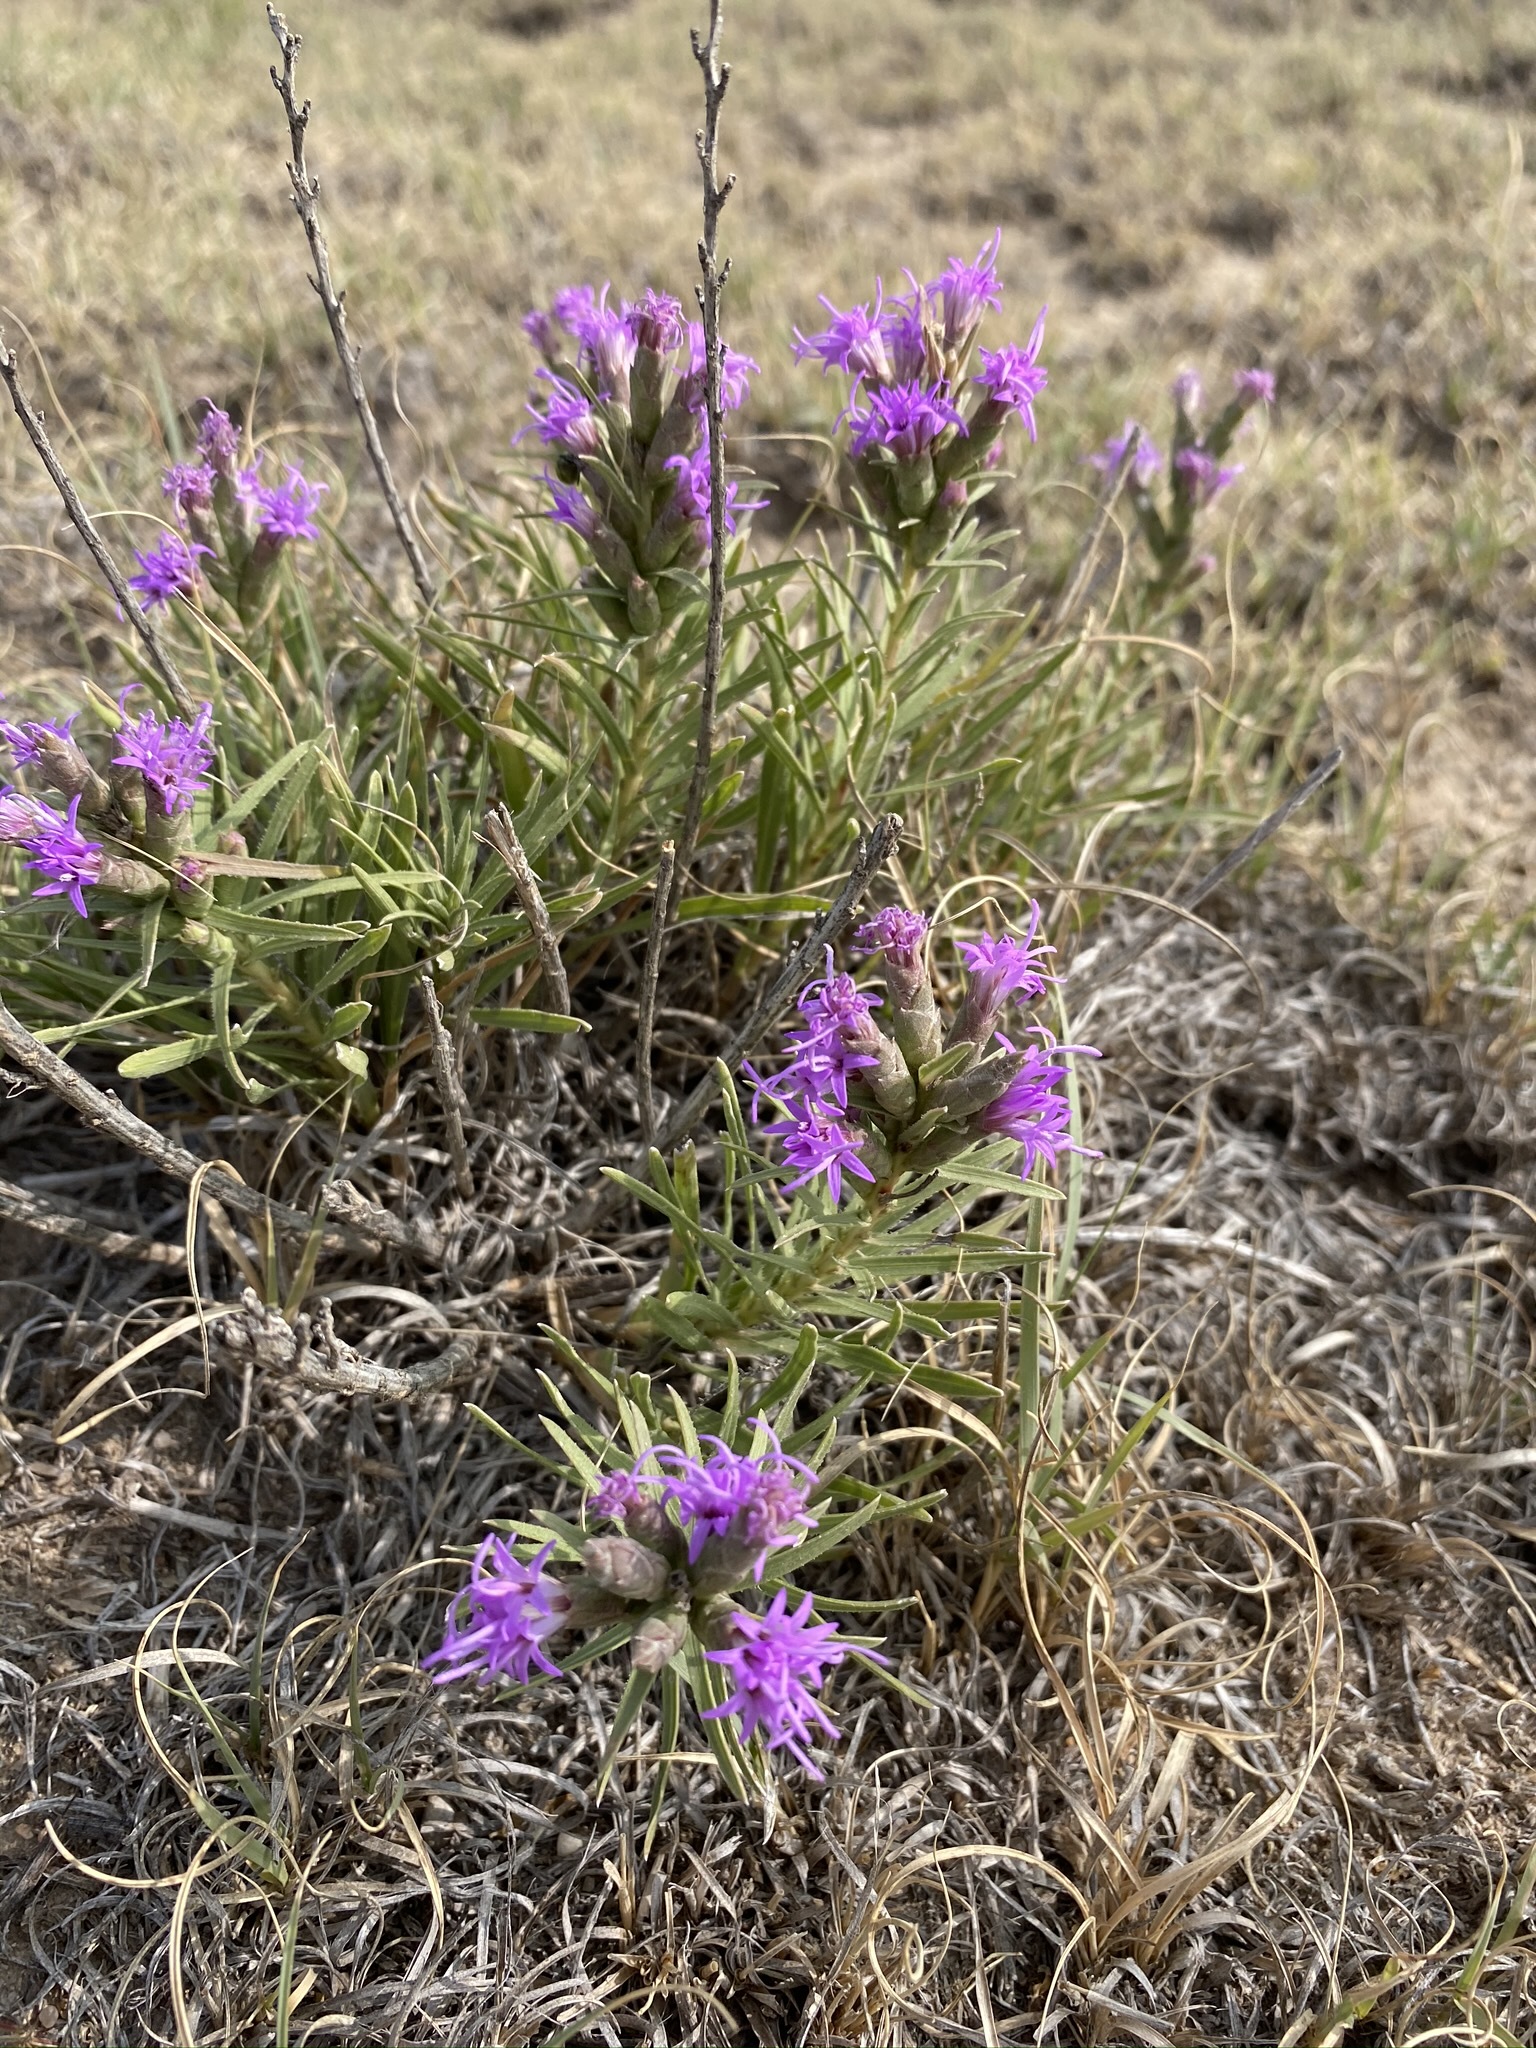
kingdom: Plantae
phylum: Tracheophyta
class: Magnoliopsida
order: Asterales
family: Asteraceae
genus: Liatris
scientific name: Liatris punctata
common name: Dotted gayfeather
